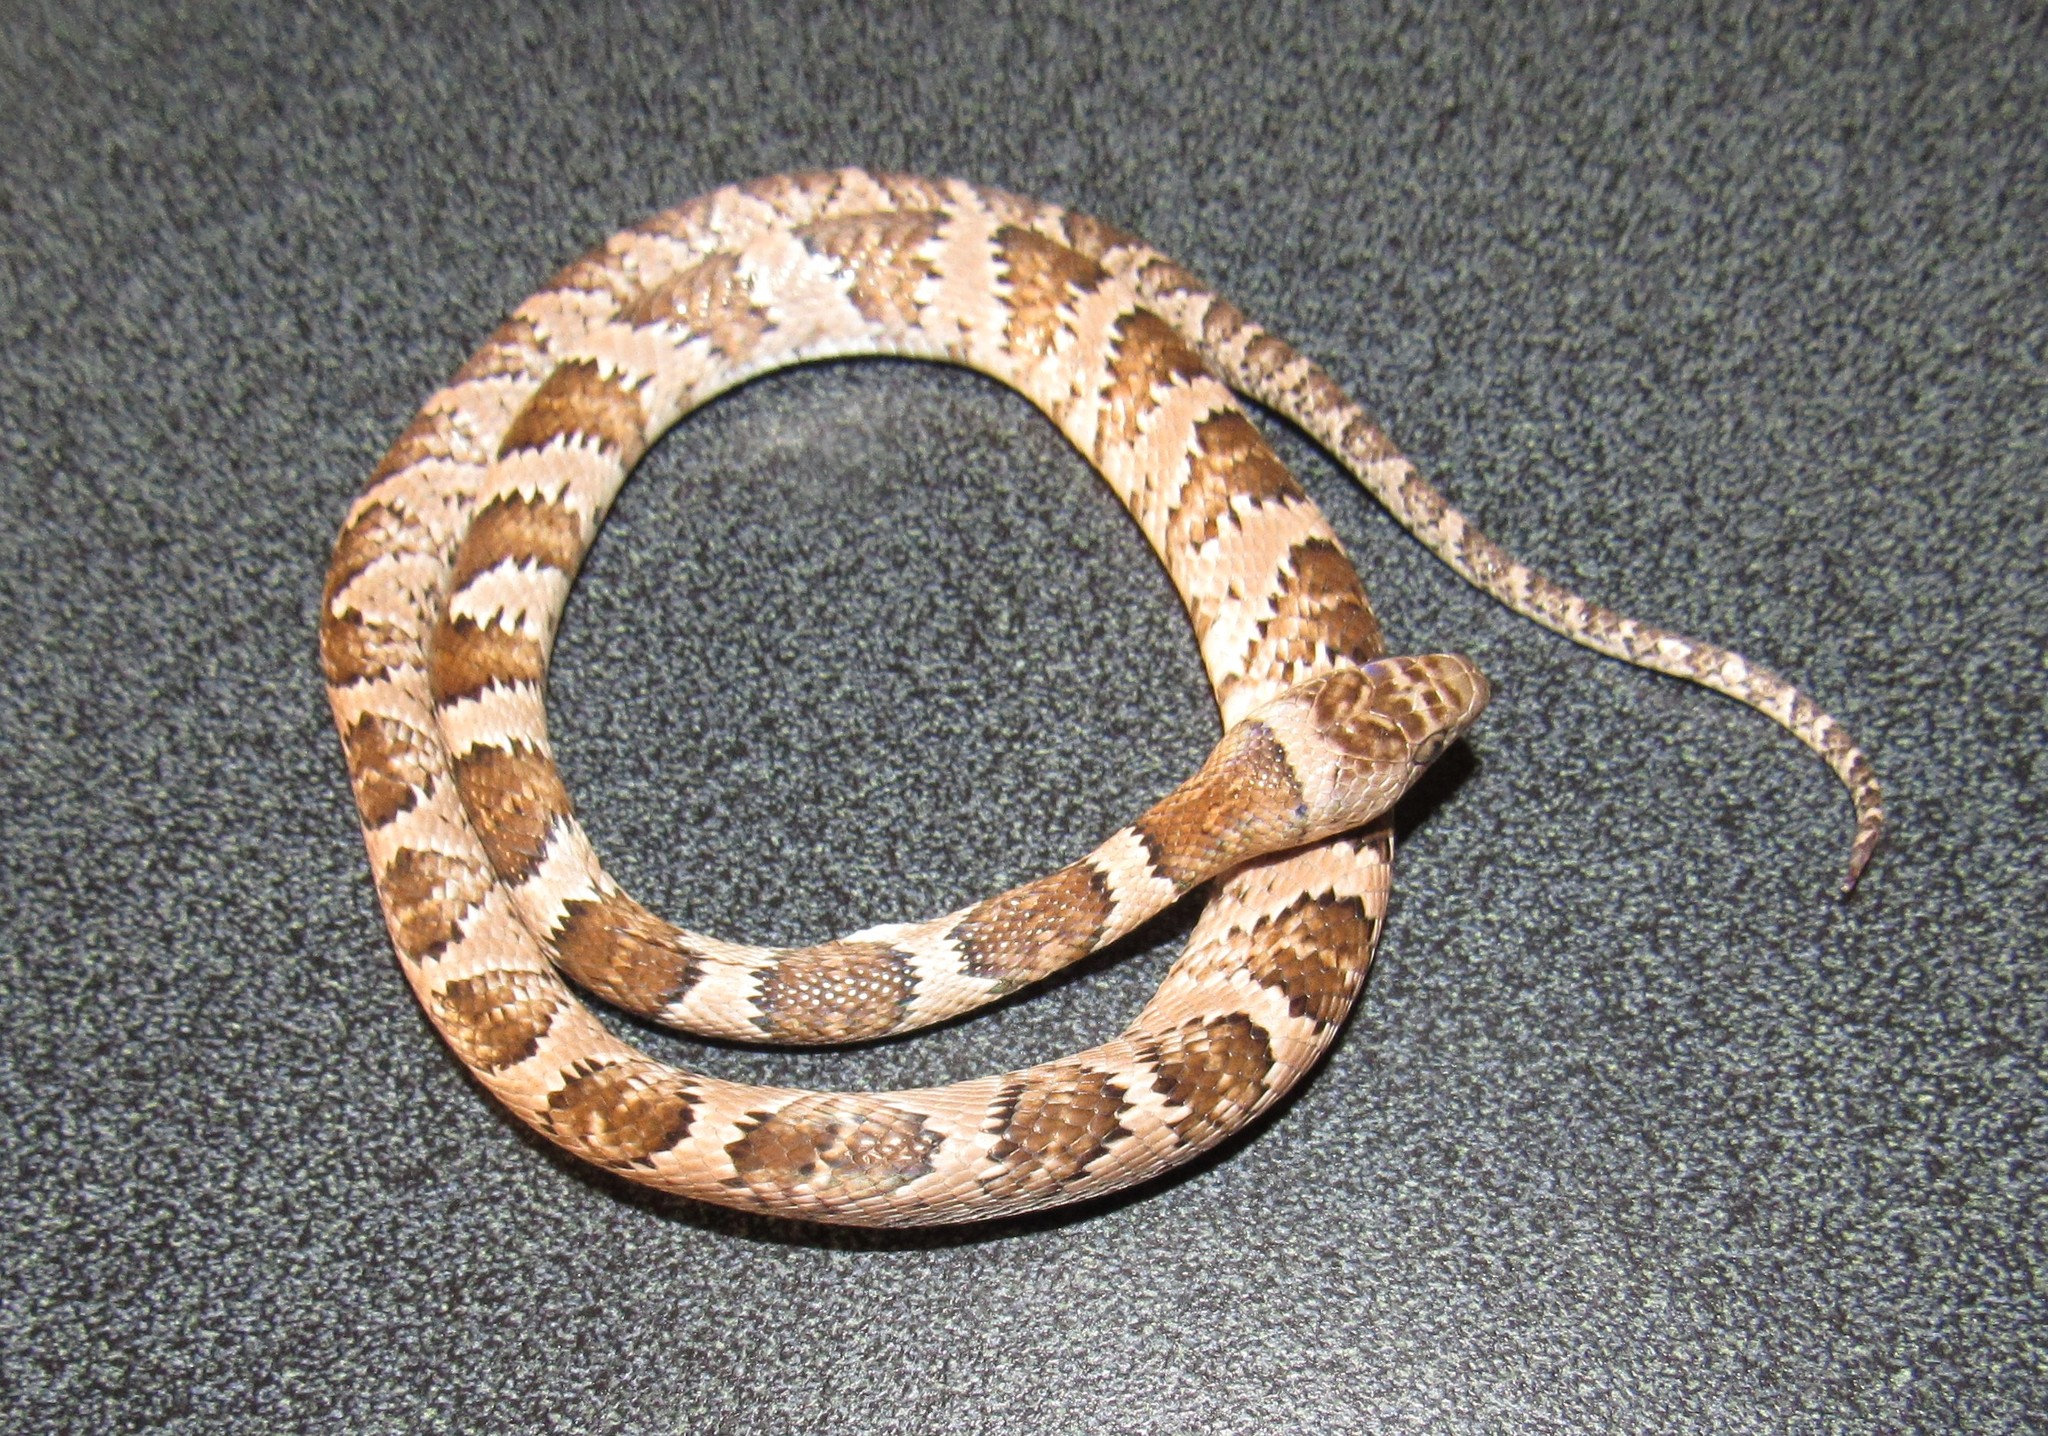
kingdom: Animalia
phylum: Chordata
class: Squamata
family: Colubridae
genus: Trimorphodon
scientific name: Trimorphodon tau
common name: Mexican lyre snake
